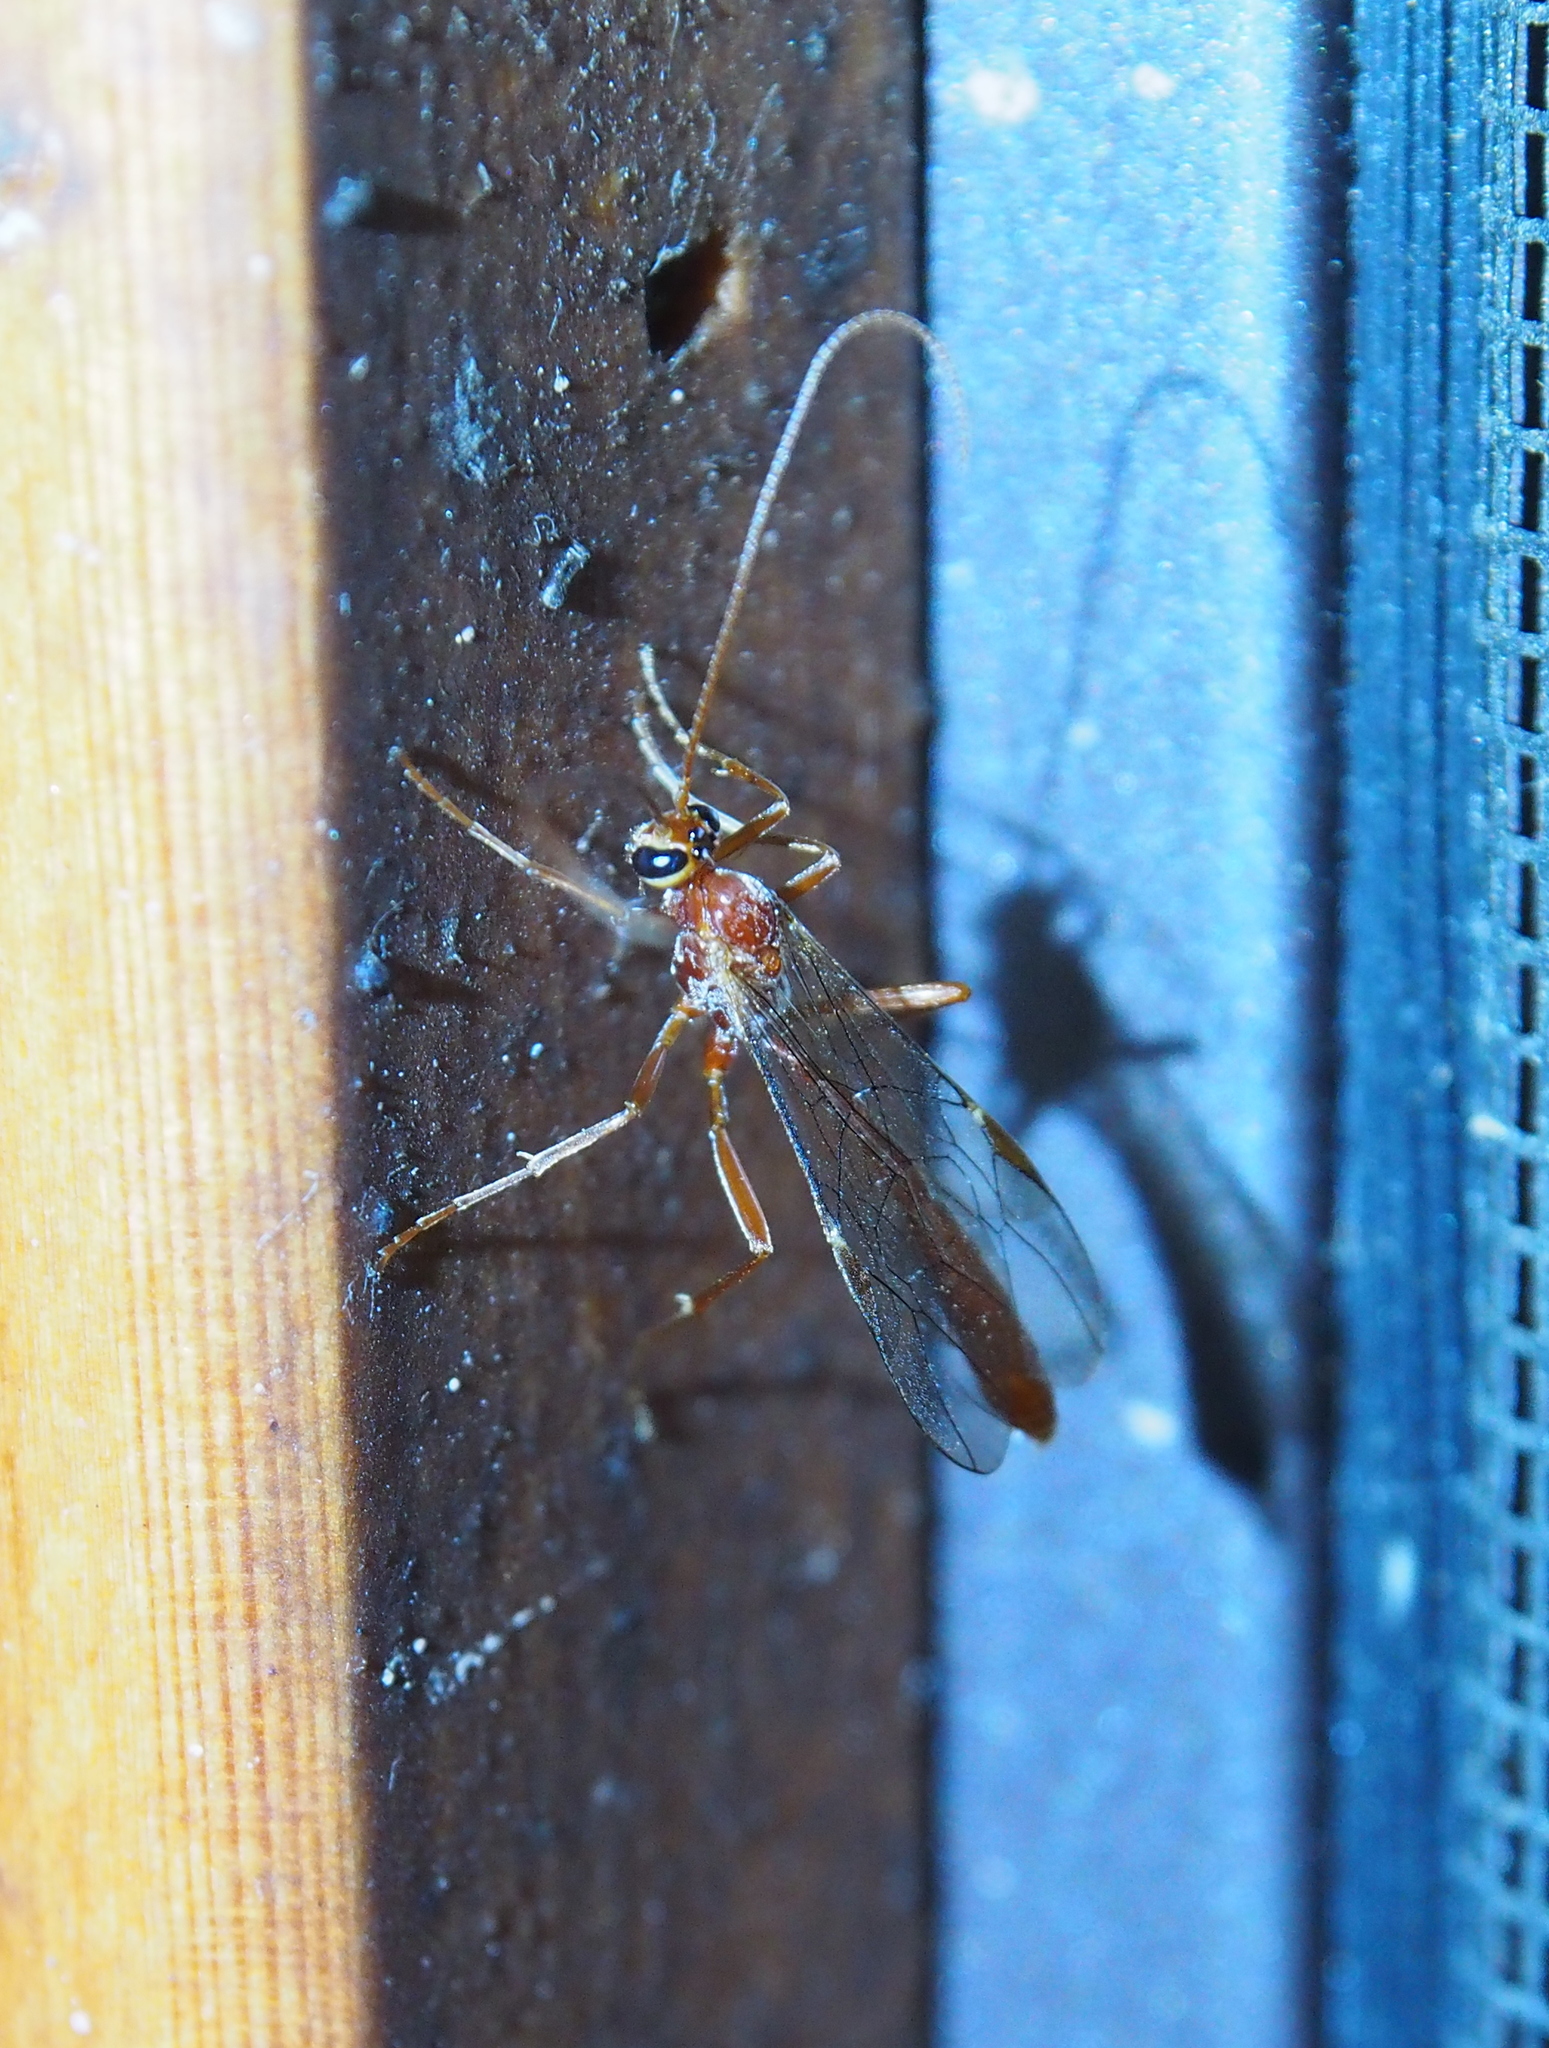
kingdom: Animalia
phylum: Arthropoda
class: Insecta
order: Hymenoptera
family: Ichneumonidae
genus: Ophion
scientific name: Ophion
